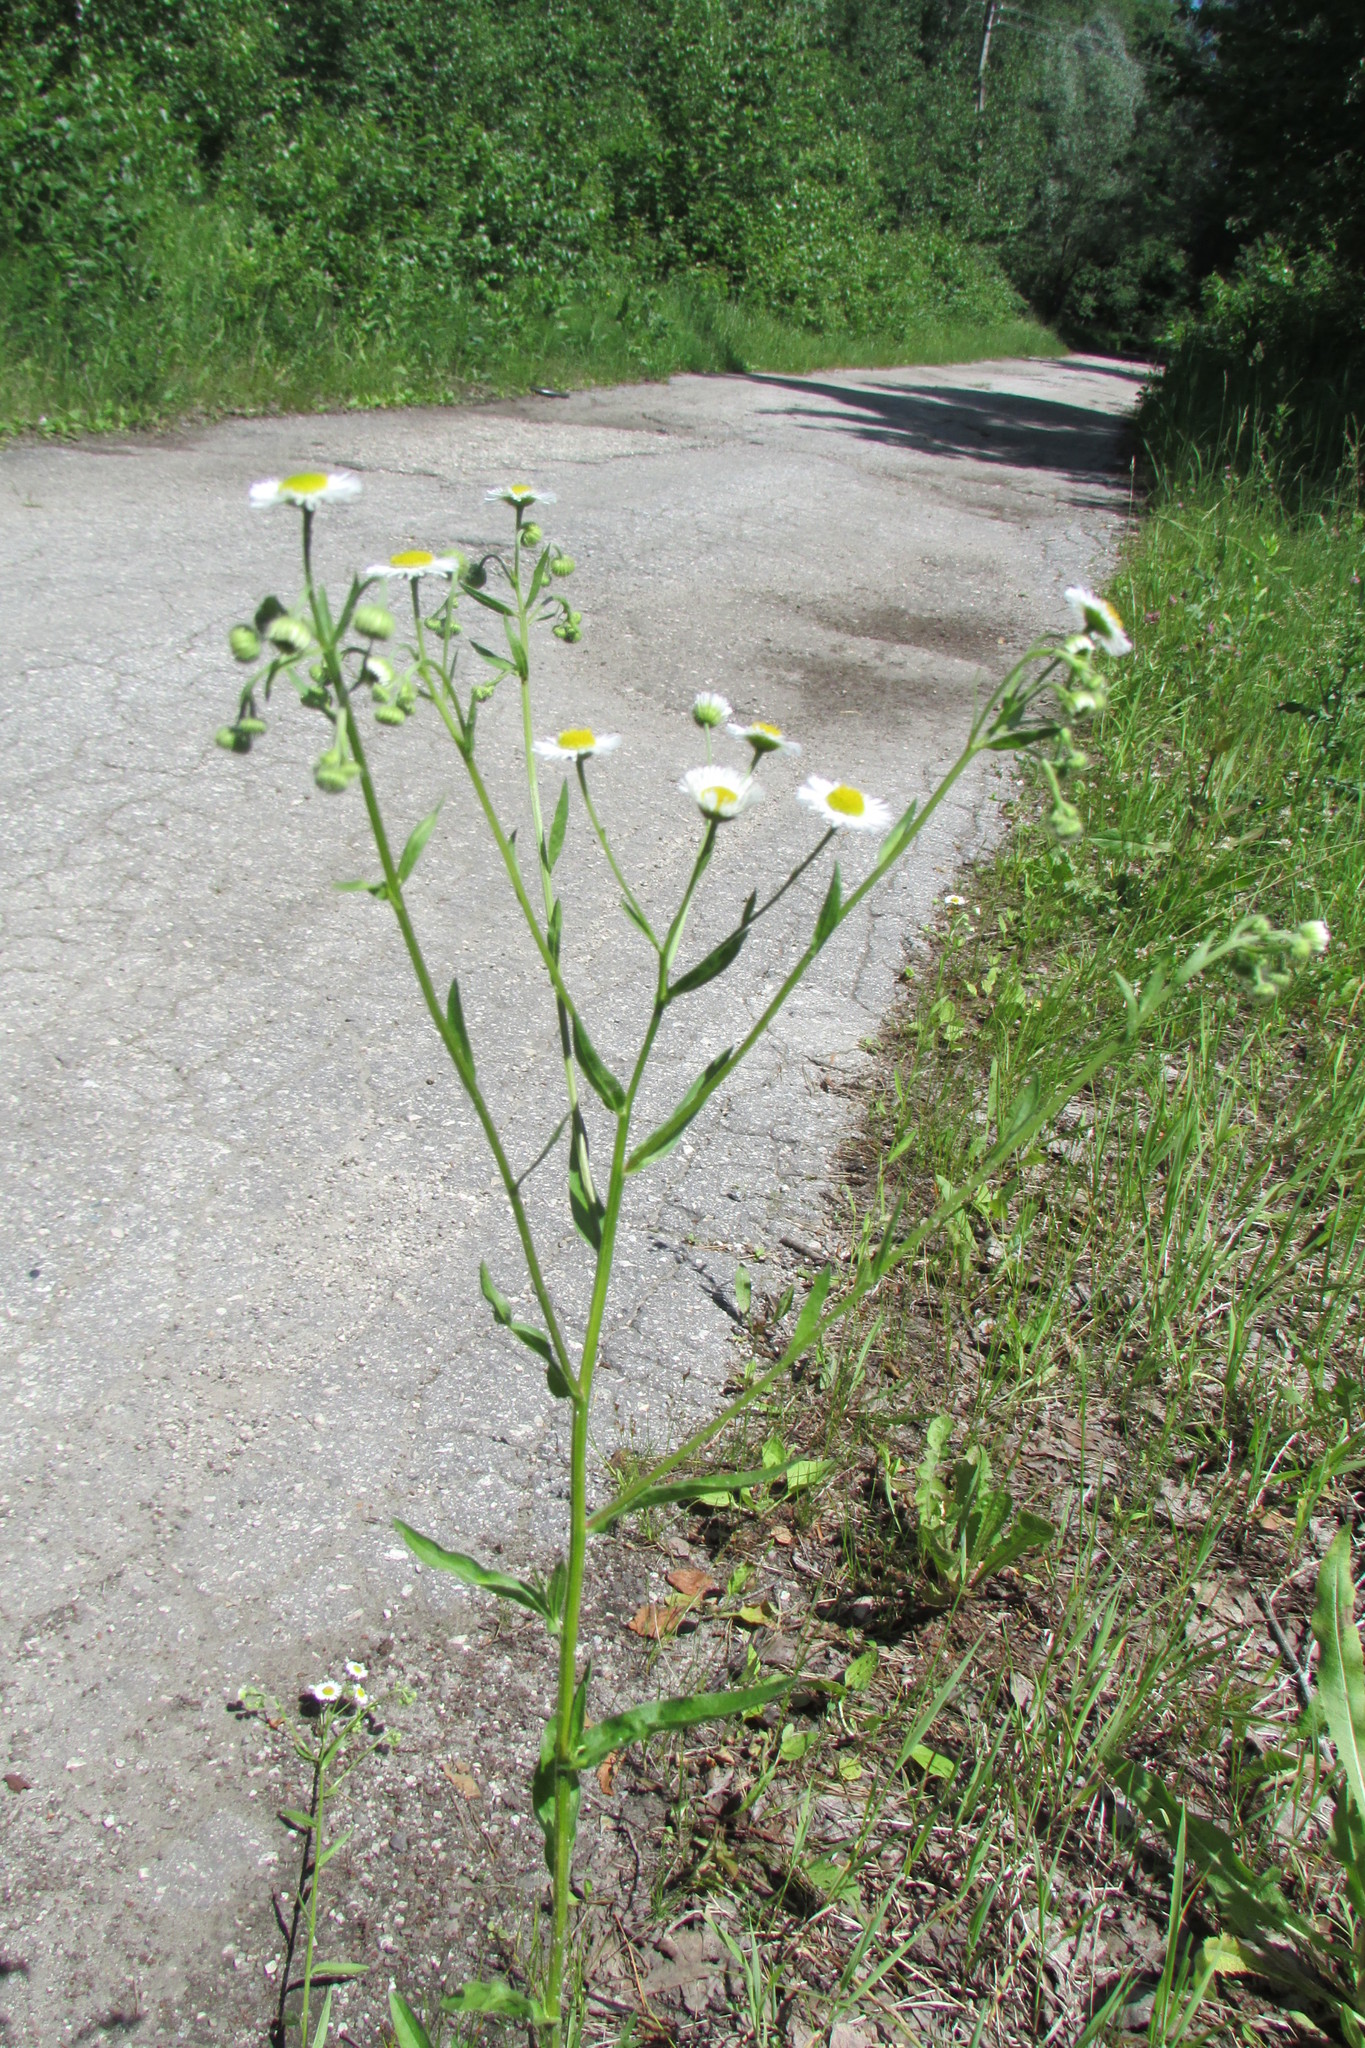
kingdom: Plantae
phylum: Tracheophyta
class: Magnoliopsida
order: Asterales
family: Asteraceae
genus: Erigeron
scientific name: Erigeron annuus
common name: Tall fleabane
